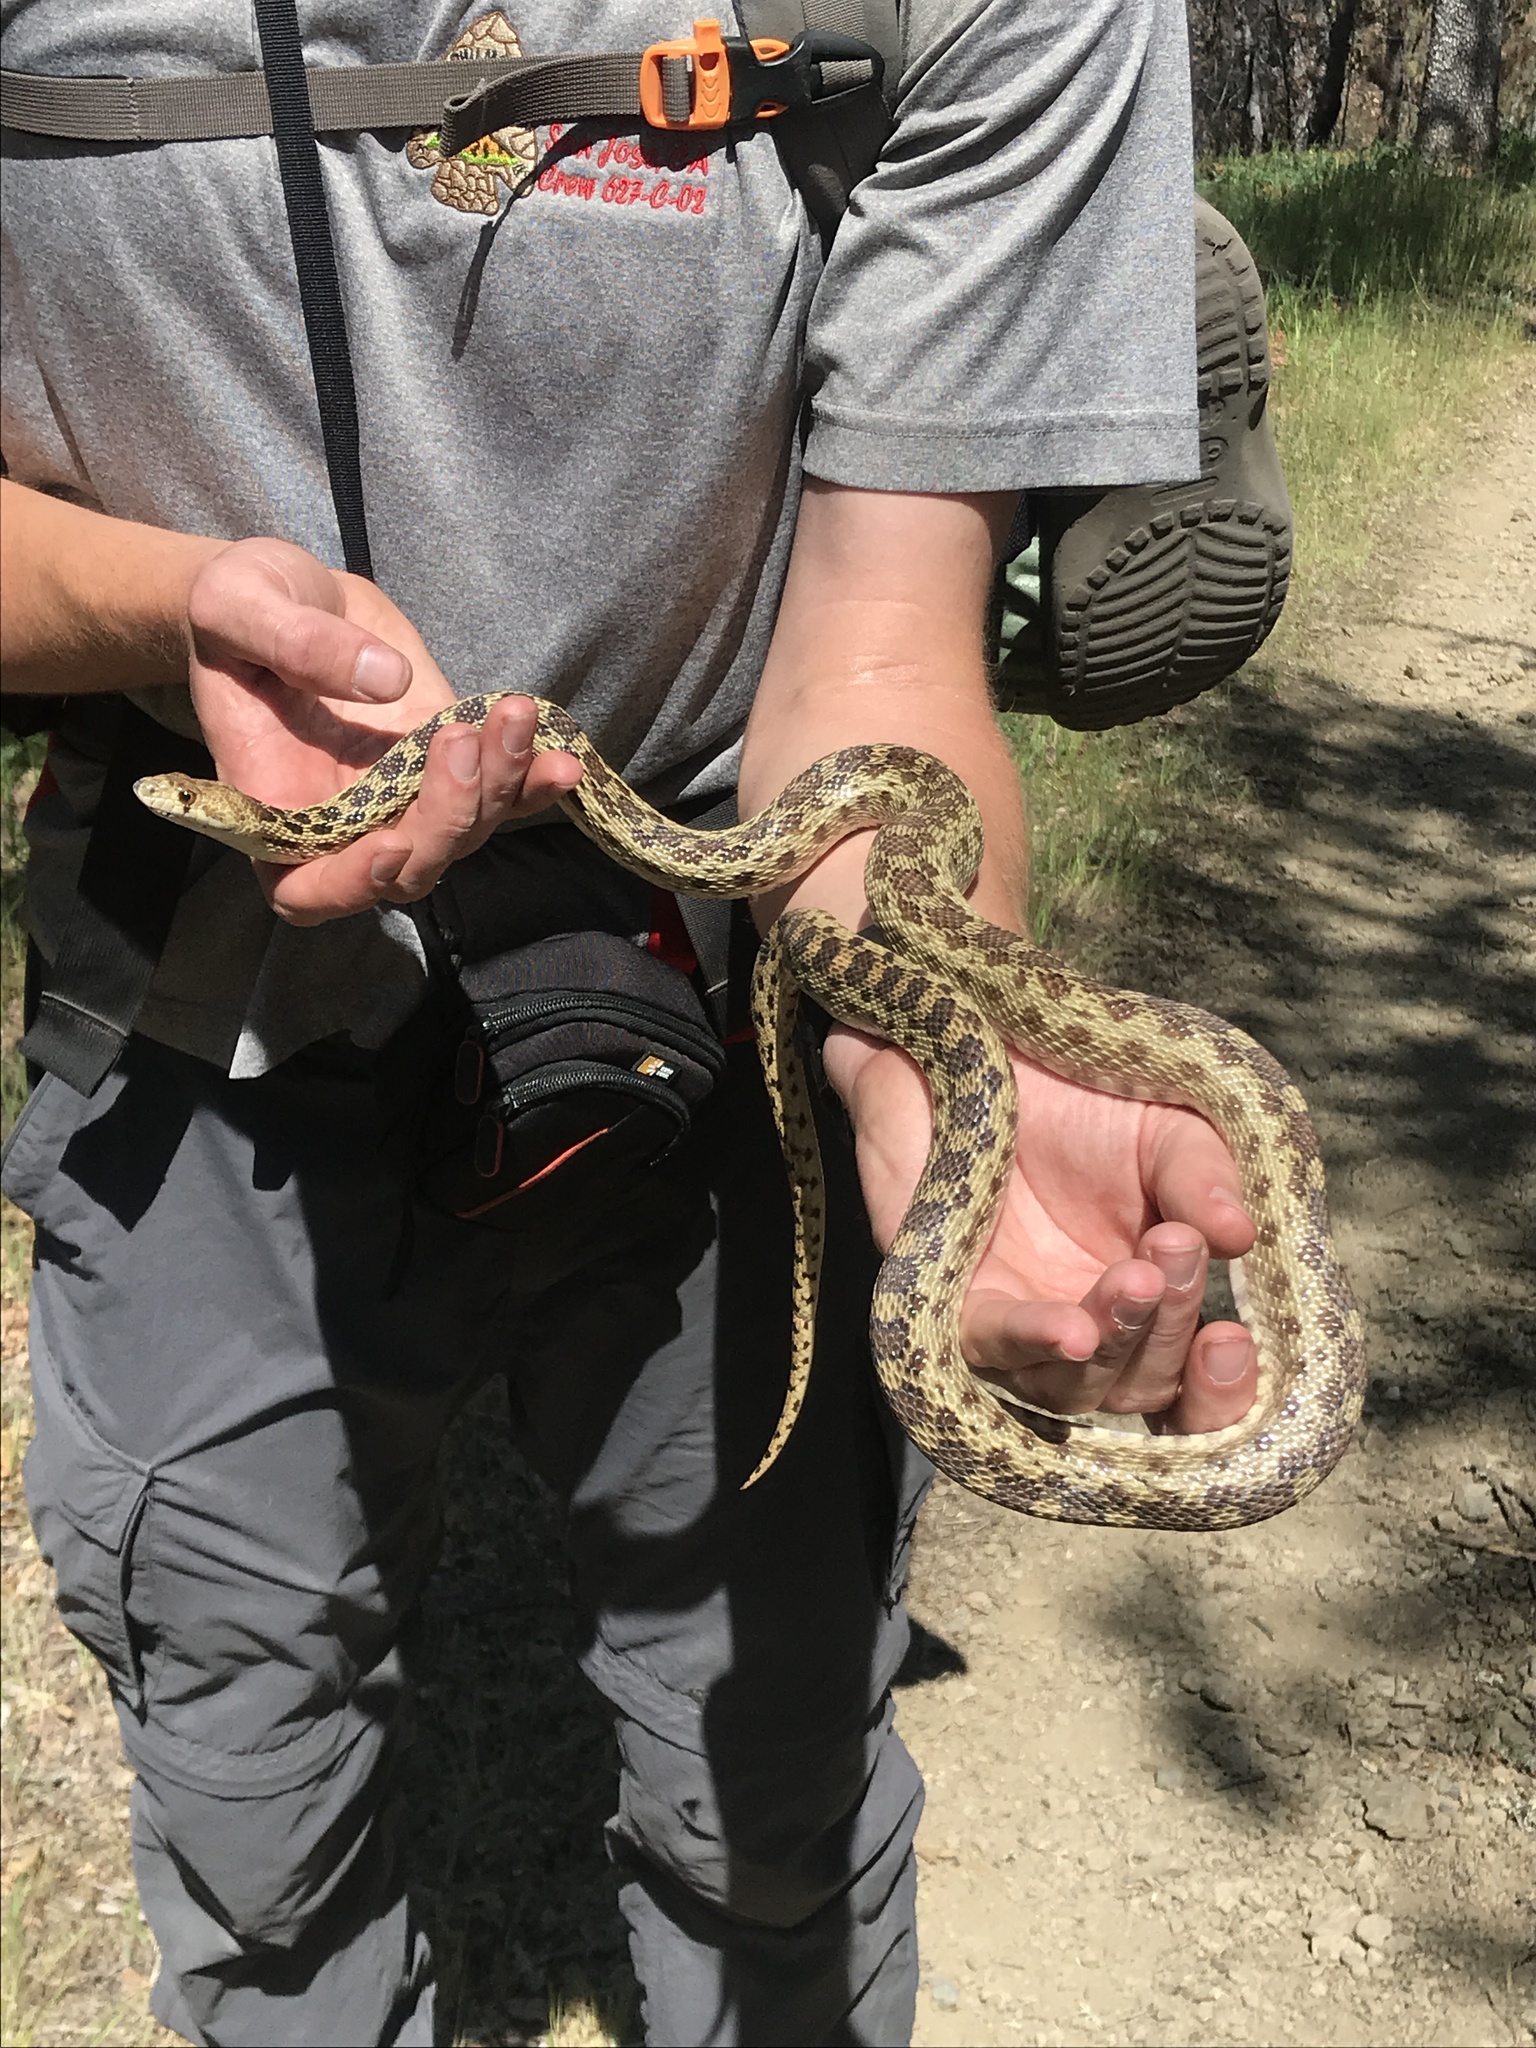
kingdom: Animalia
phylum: Chordata
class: Squamata
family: Colubridae
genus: Pituophis
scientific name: Pituophis catenifer
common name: Gopher snake
